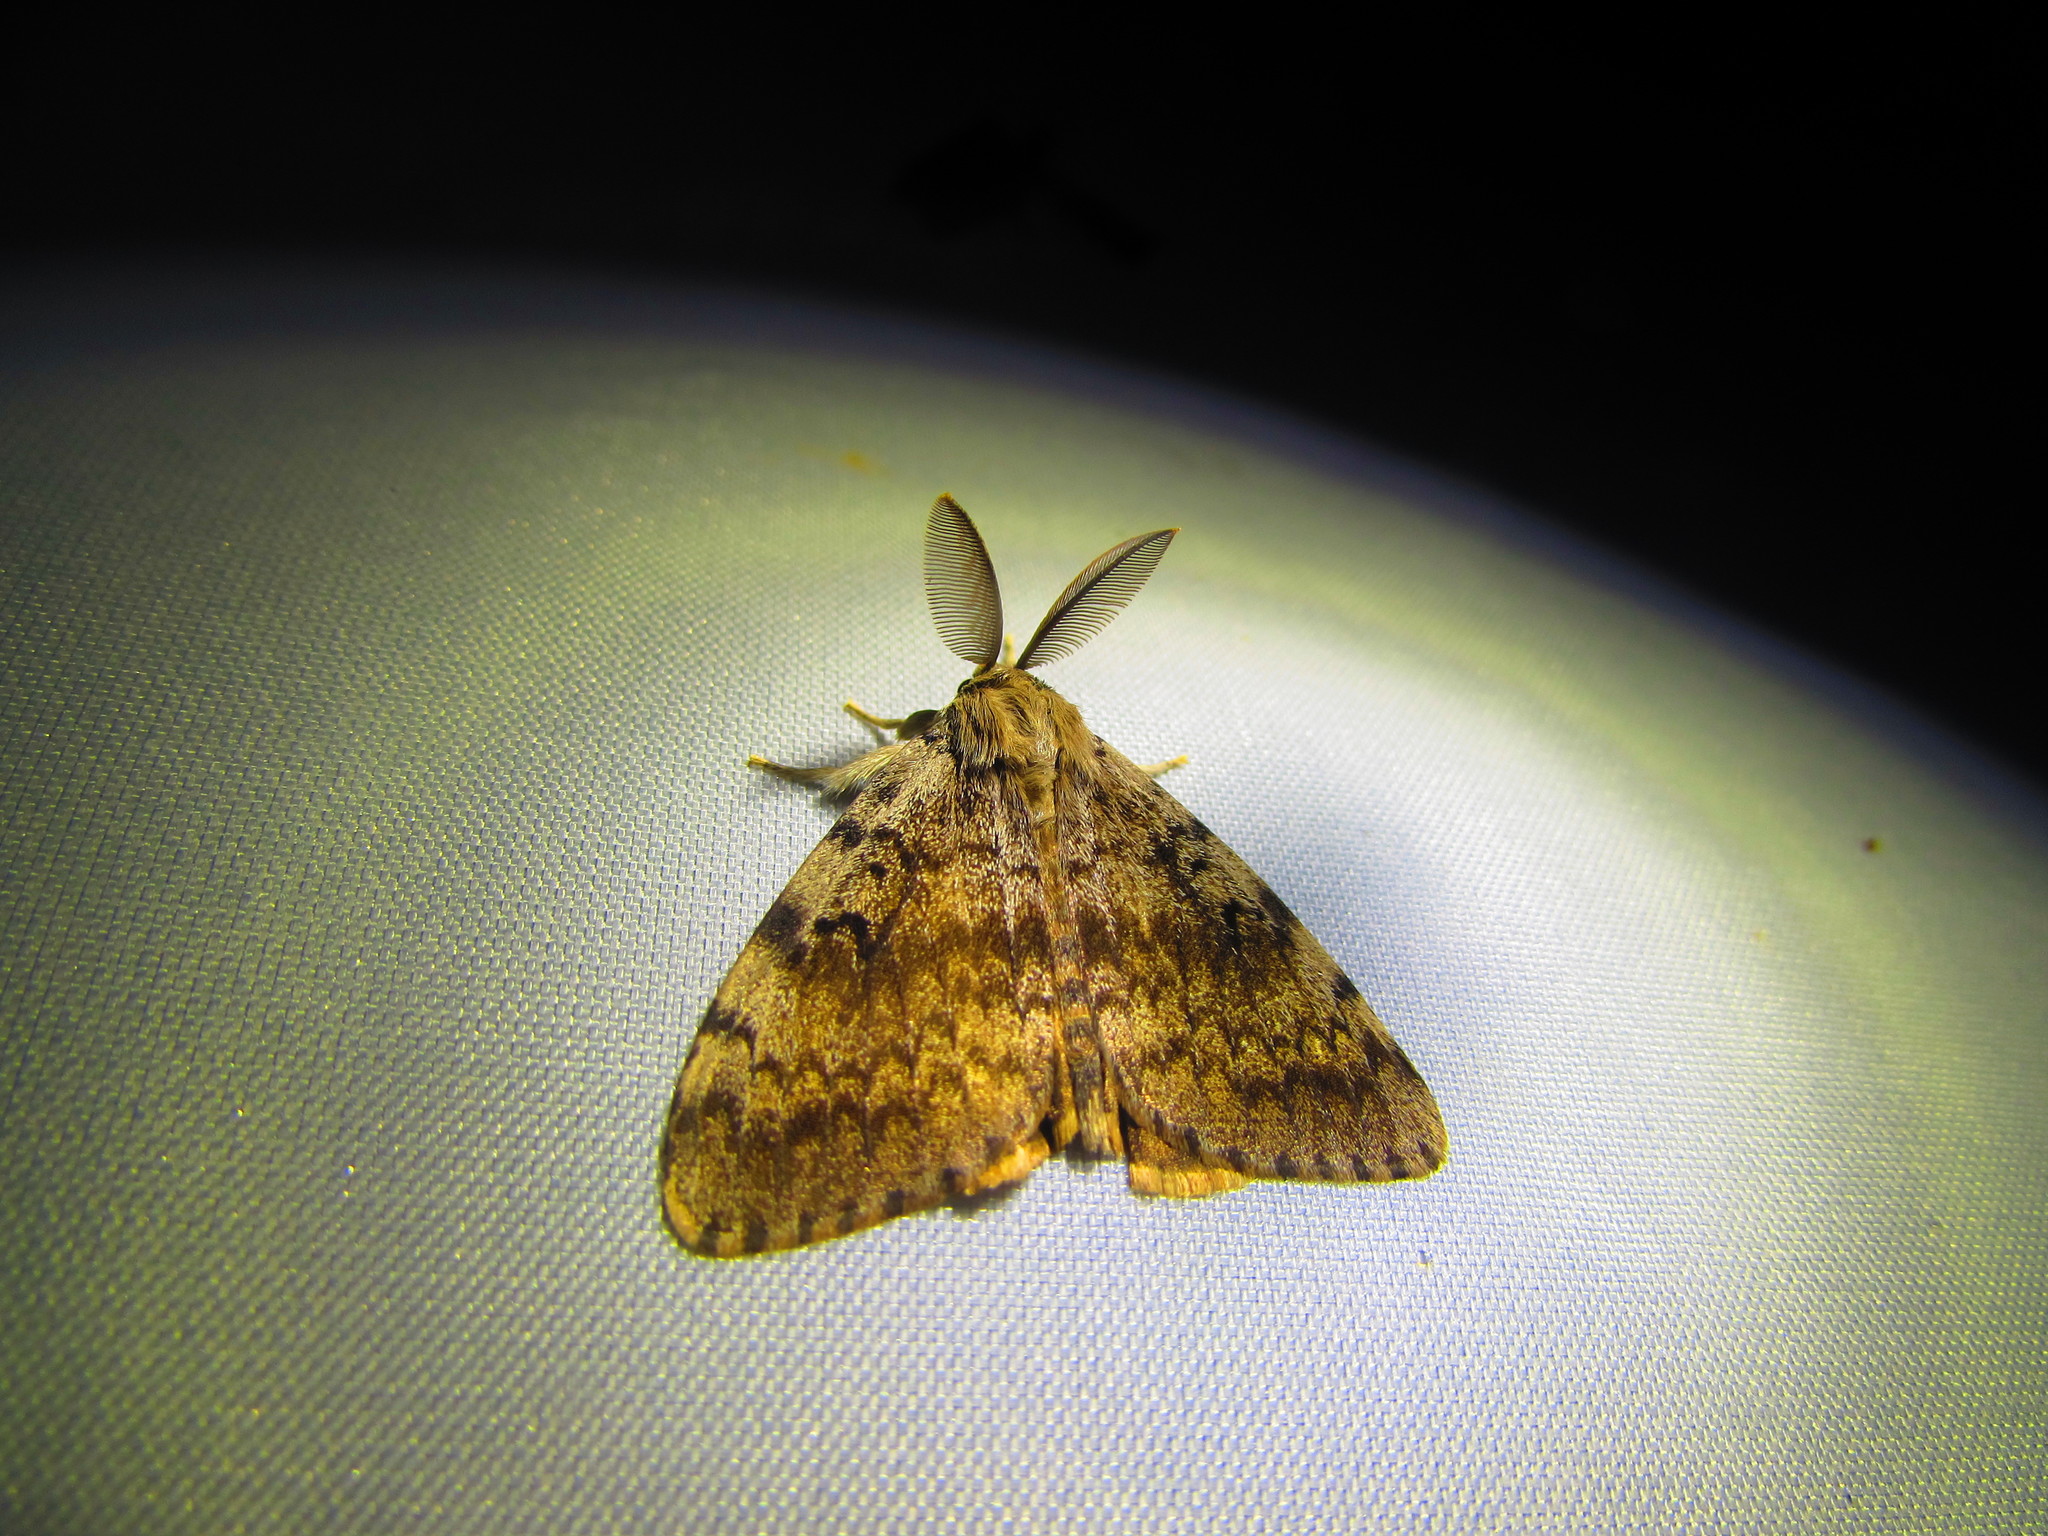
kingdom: Animalia
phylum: Arthropoda
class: Insecta
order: Lepidoptera
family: Erebidae
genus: Lymantria
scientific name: Lymantria dispar
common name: Gypsy moth
